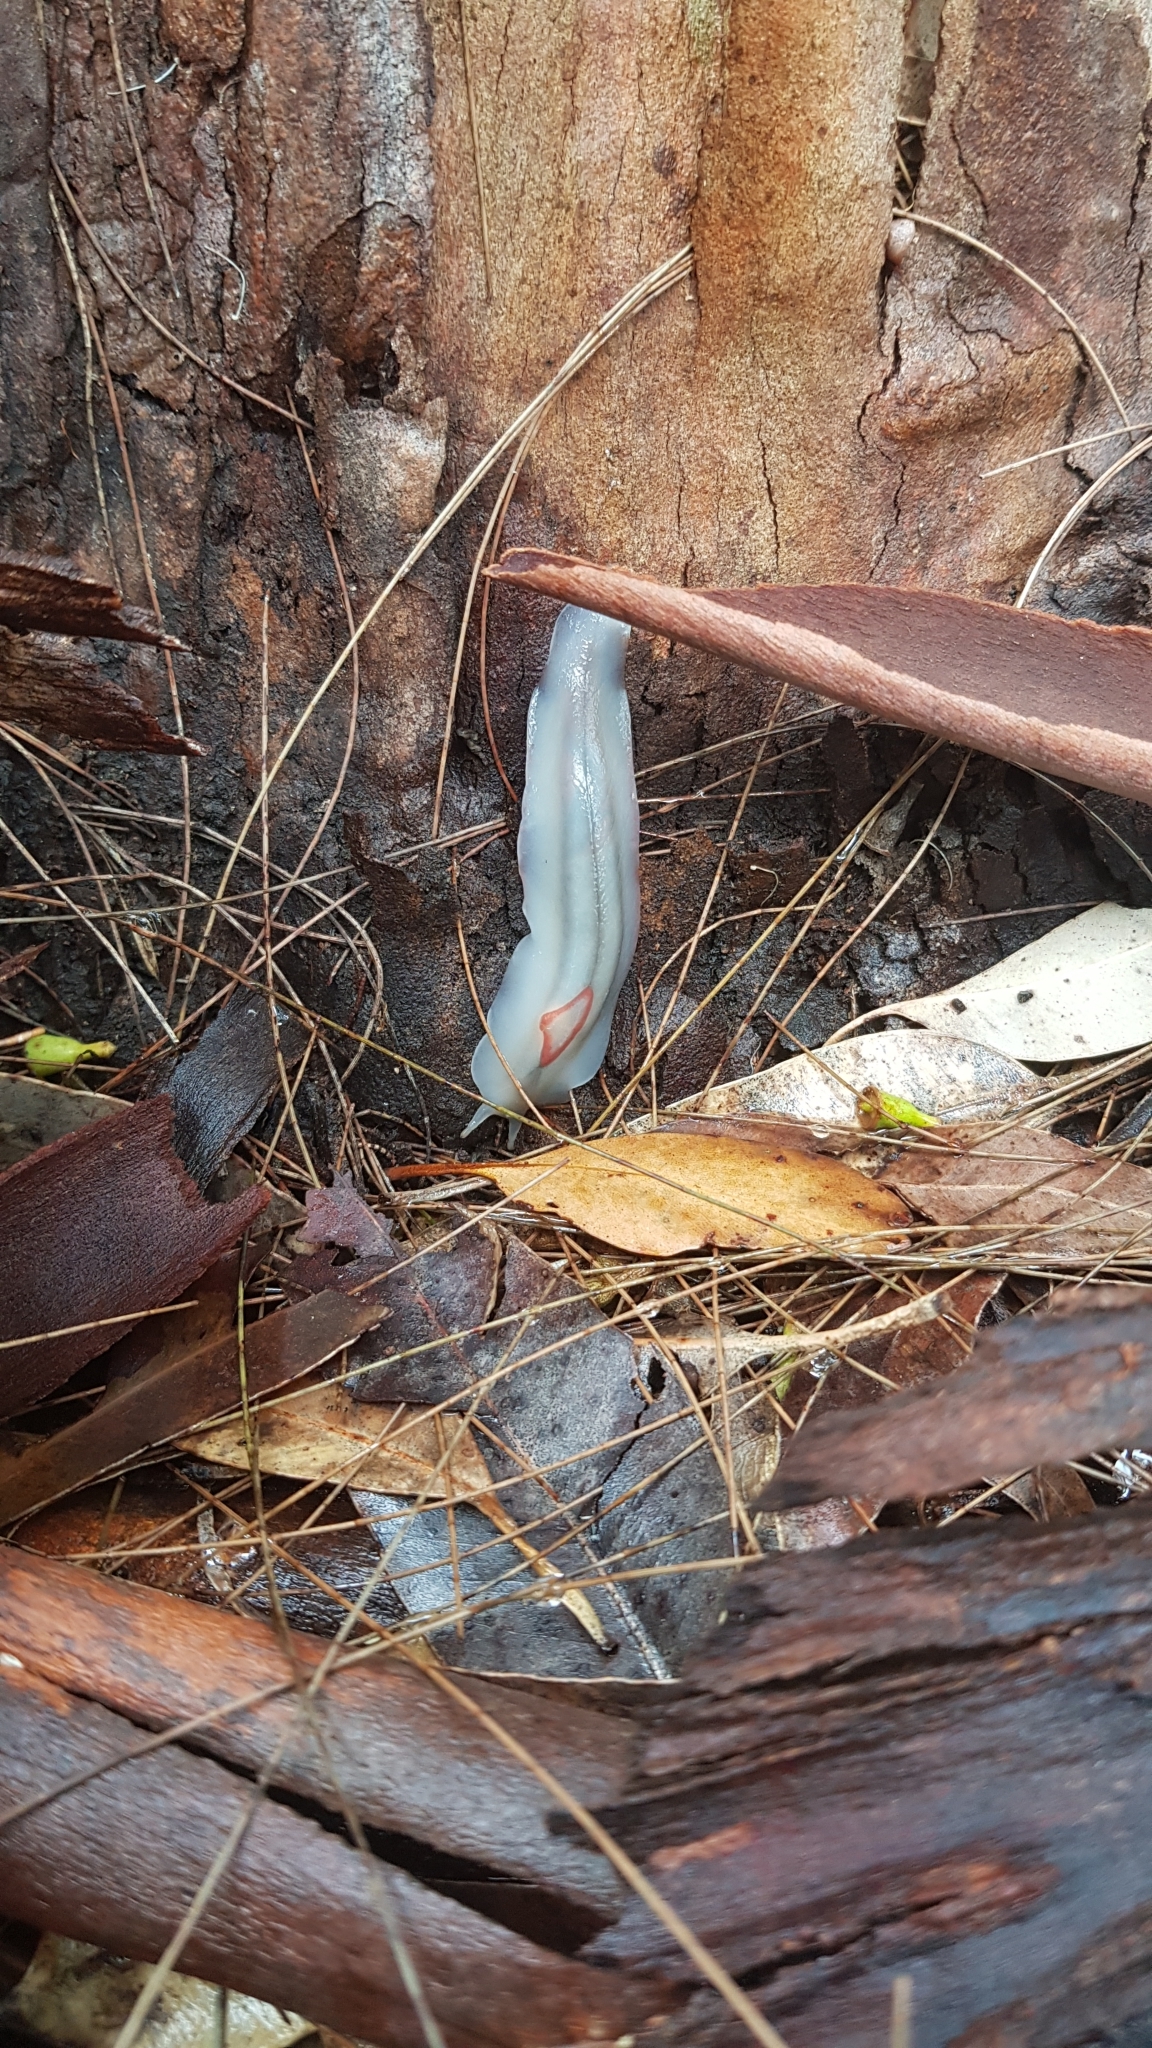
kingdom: Animalia
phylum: Mollusca
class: Gastropoda
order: Stylommatophora
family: Athoracophoridae
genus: Triboniophorus
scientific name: Triboniophorus graeffei
